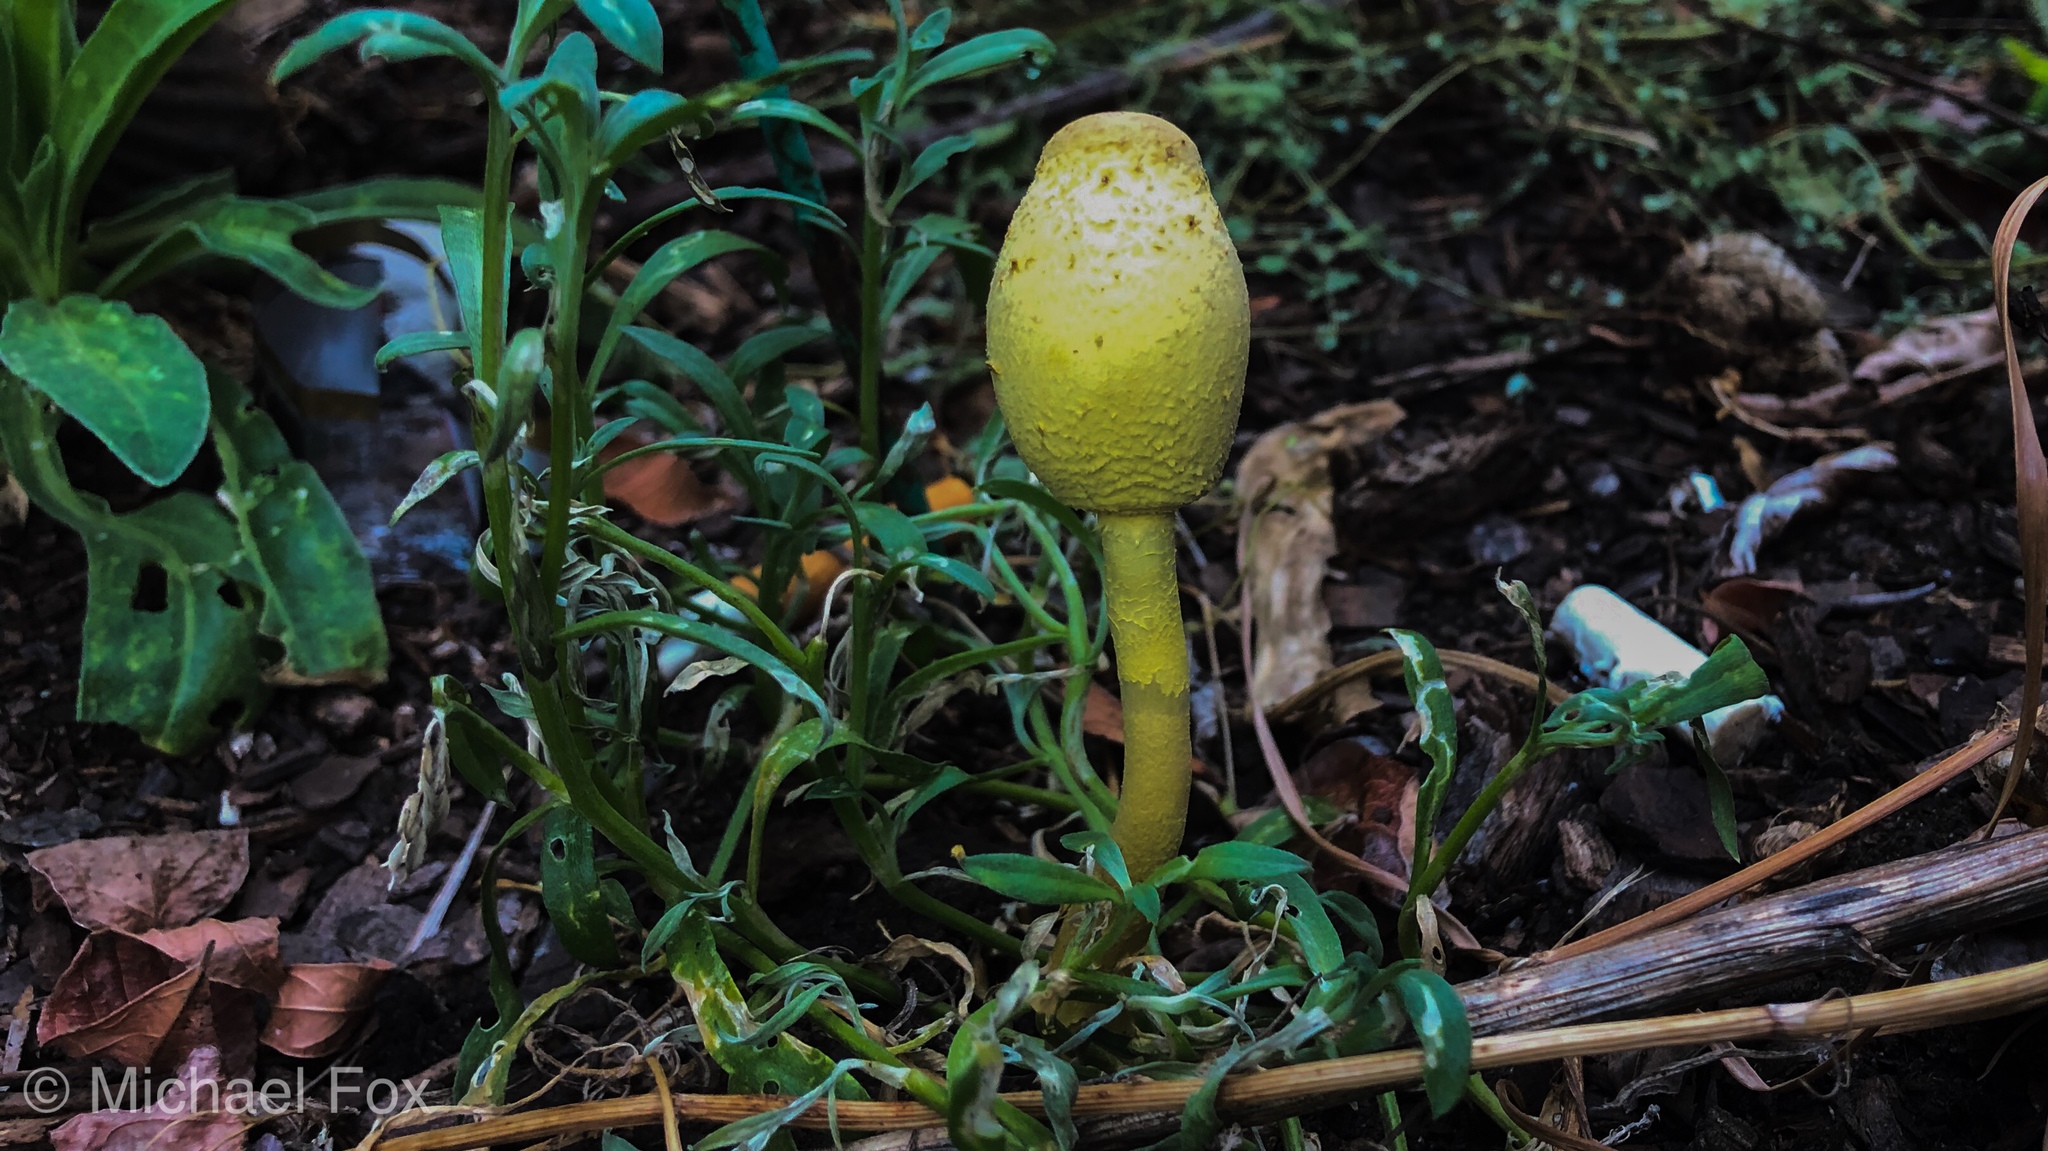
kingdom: Fungi
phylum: Basidiomycota
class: Agaricomycetes
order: Agaricales
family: Agaricaceae
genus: Leucocoprinus
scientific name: Leucocoprinus birnbaumii
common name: Plantpot dapperling
